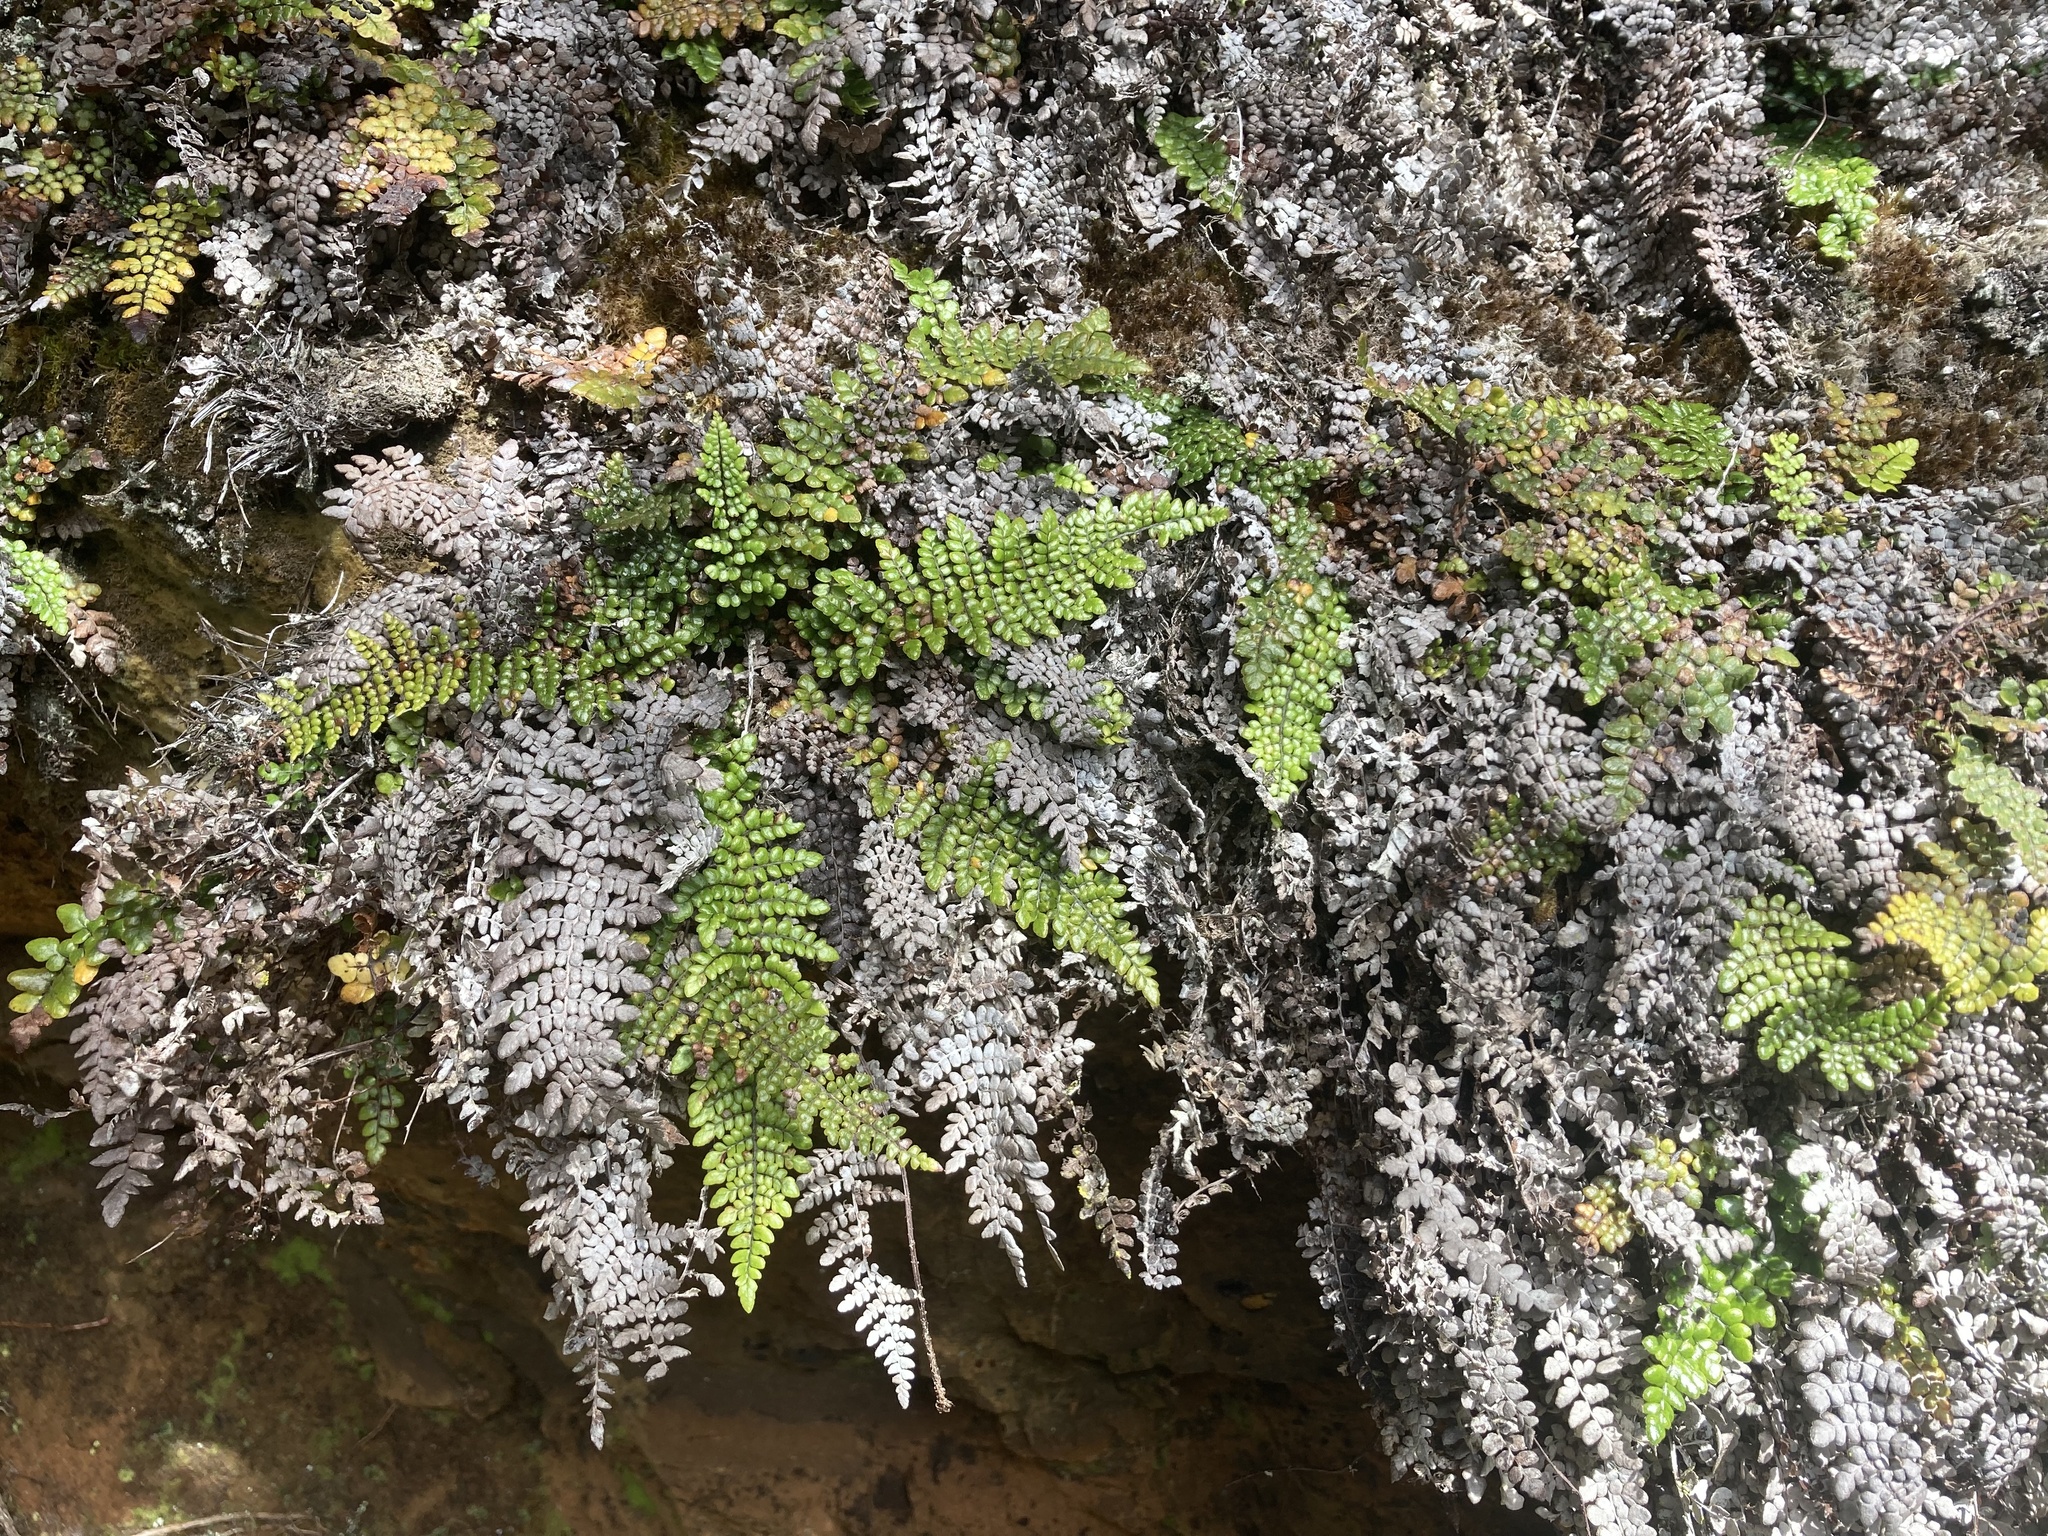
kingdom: Plantae
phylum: Tracheophyta
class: Polypodiopsida
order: Polypodiales
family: Blechnaceae
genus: Sadleria
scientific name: Sadleria unisora
